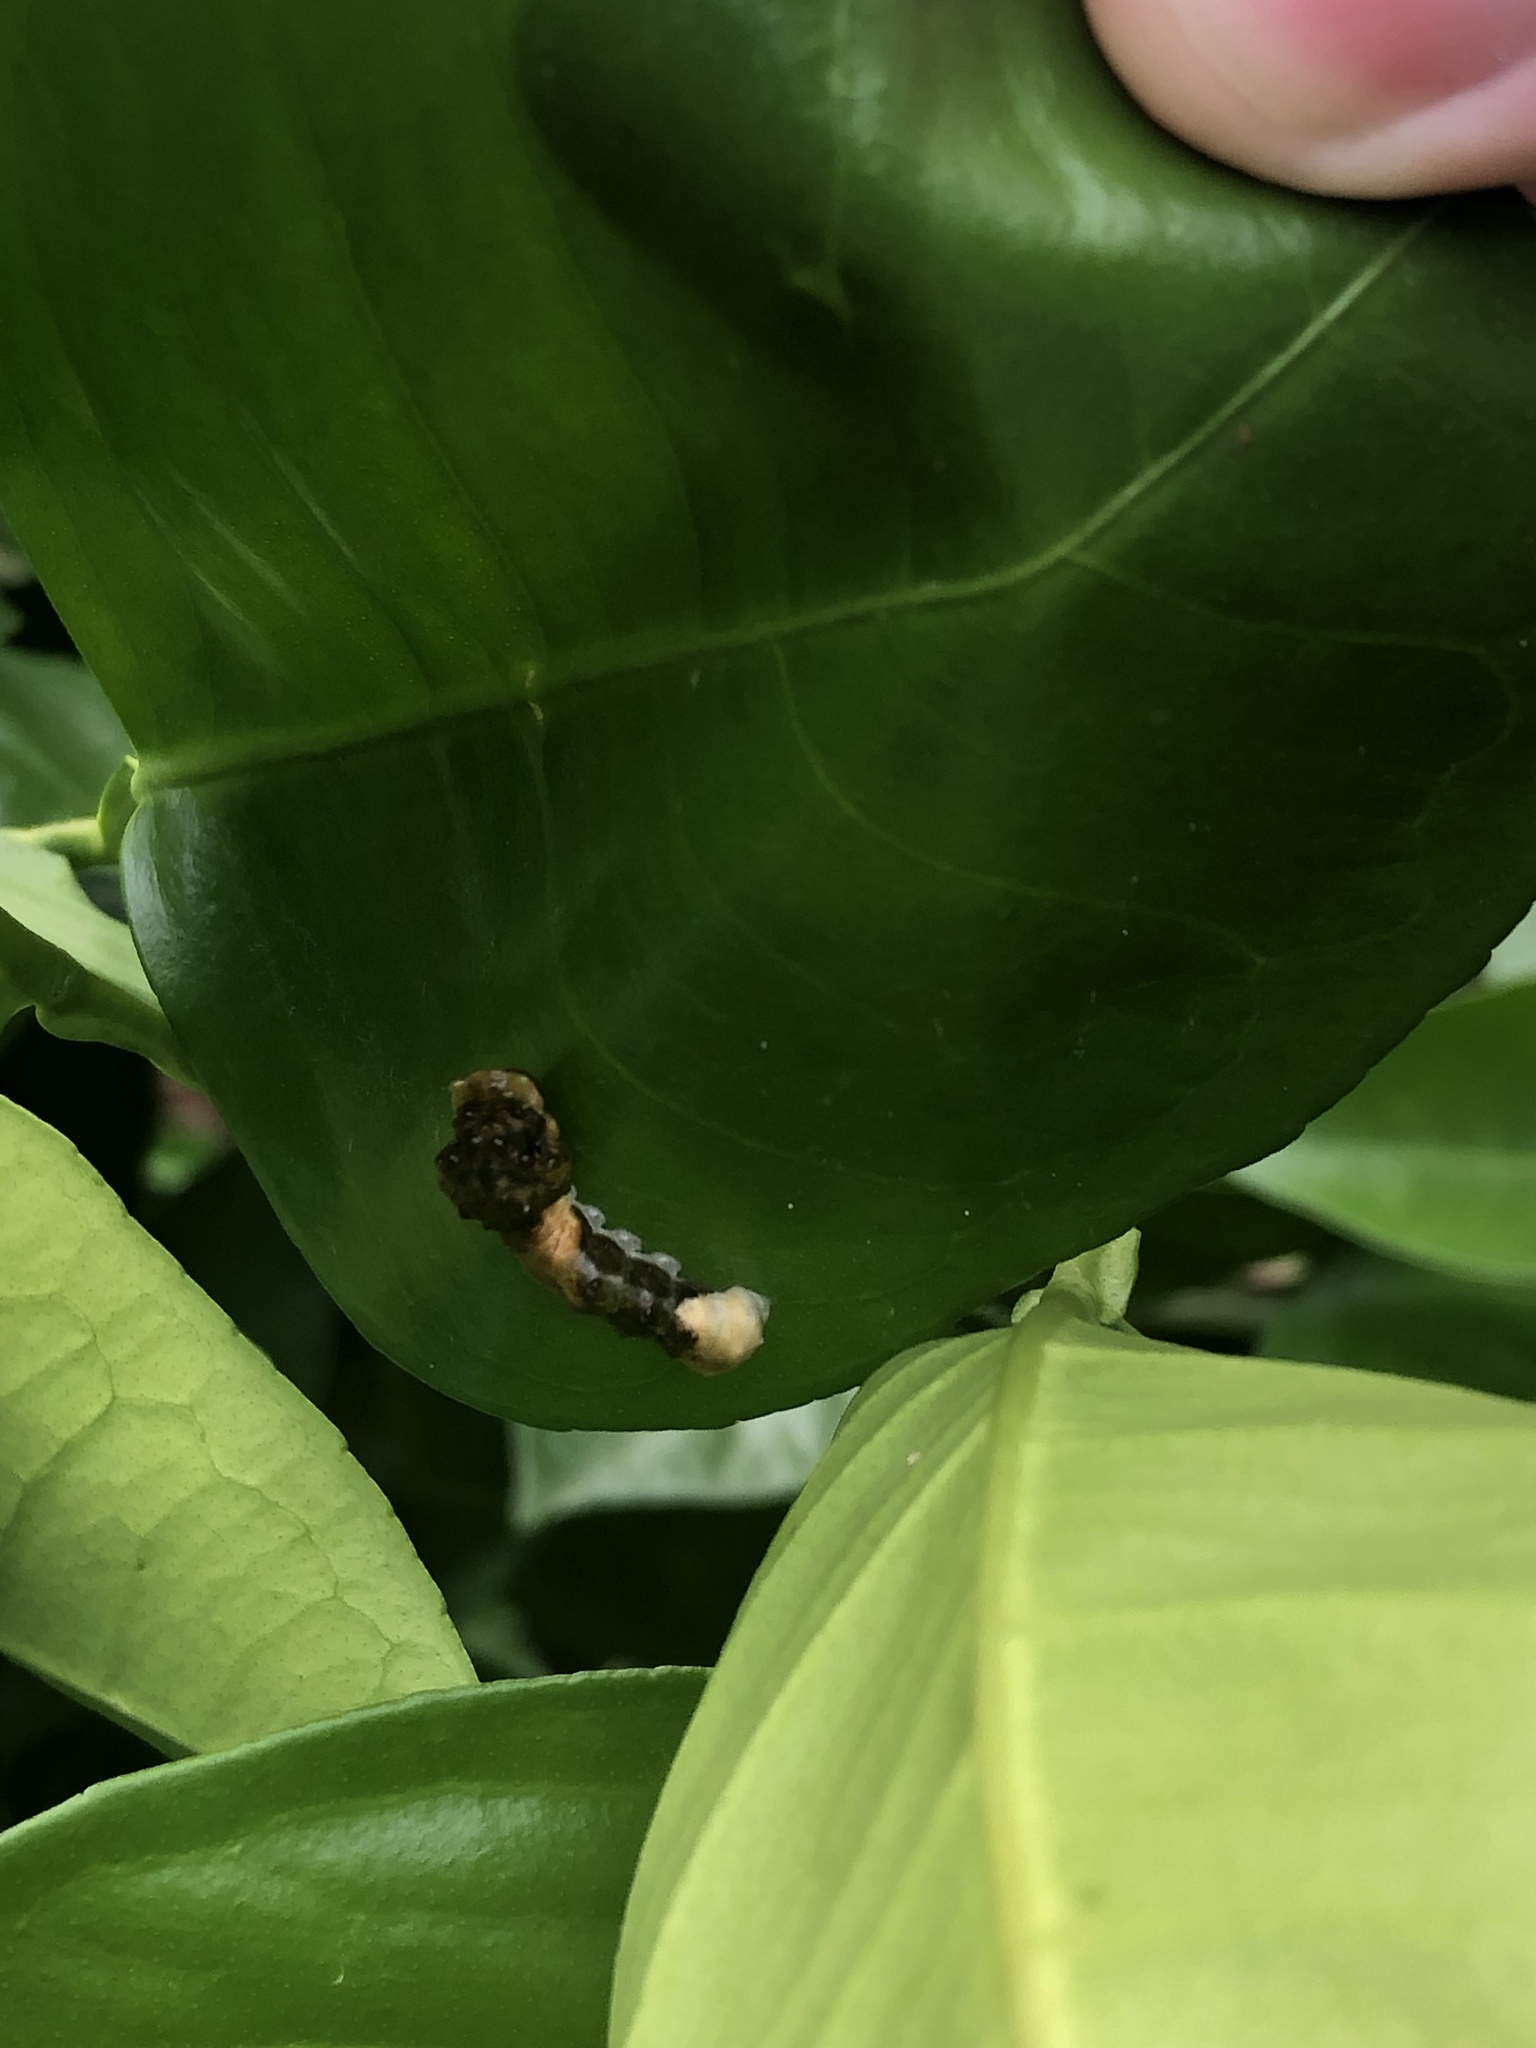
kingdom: Animalia
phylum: Arthropoda
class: Insecta
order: Lepidoptera
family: Papilionidae
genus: Papilio
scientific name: Papilio cresphontes
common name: Giant swallowtail
